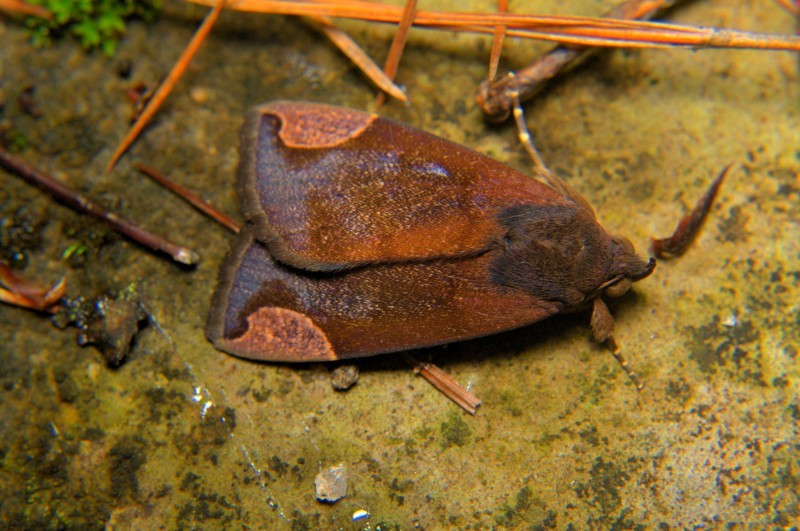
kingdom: Animalia
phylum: Arthropoda
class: Insecta
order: Lepidoptera
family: Erebidae
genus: Chrysopera
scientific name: Chrysopera combinans
